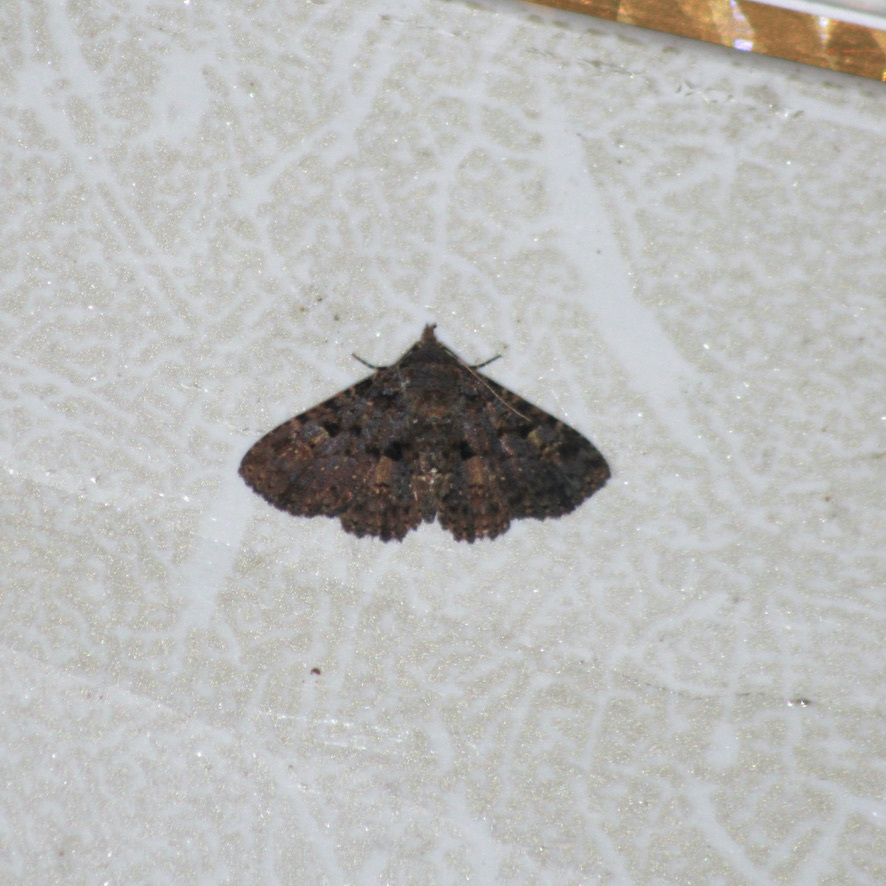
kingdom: Animalia
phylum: Arthropoda
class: Insecta
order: Lepidoptera
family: Erebidae
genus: Metalectra
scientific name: Metalectra praecisalis
